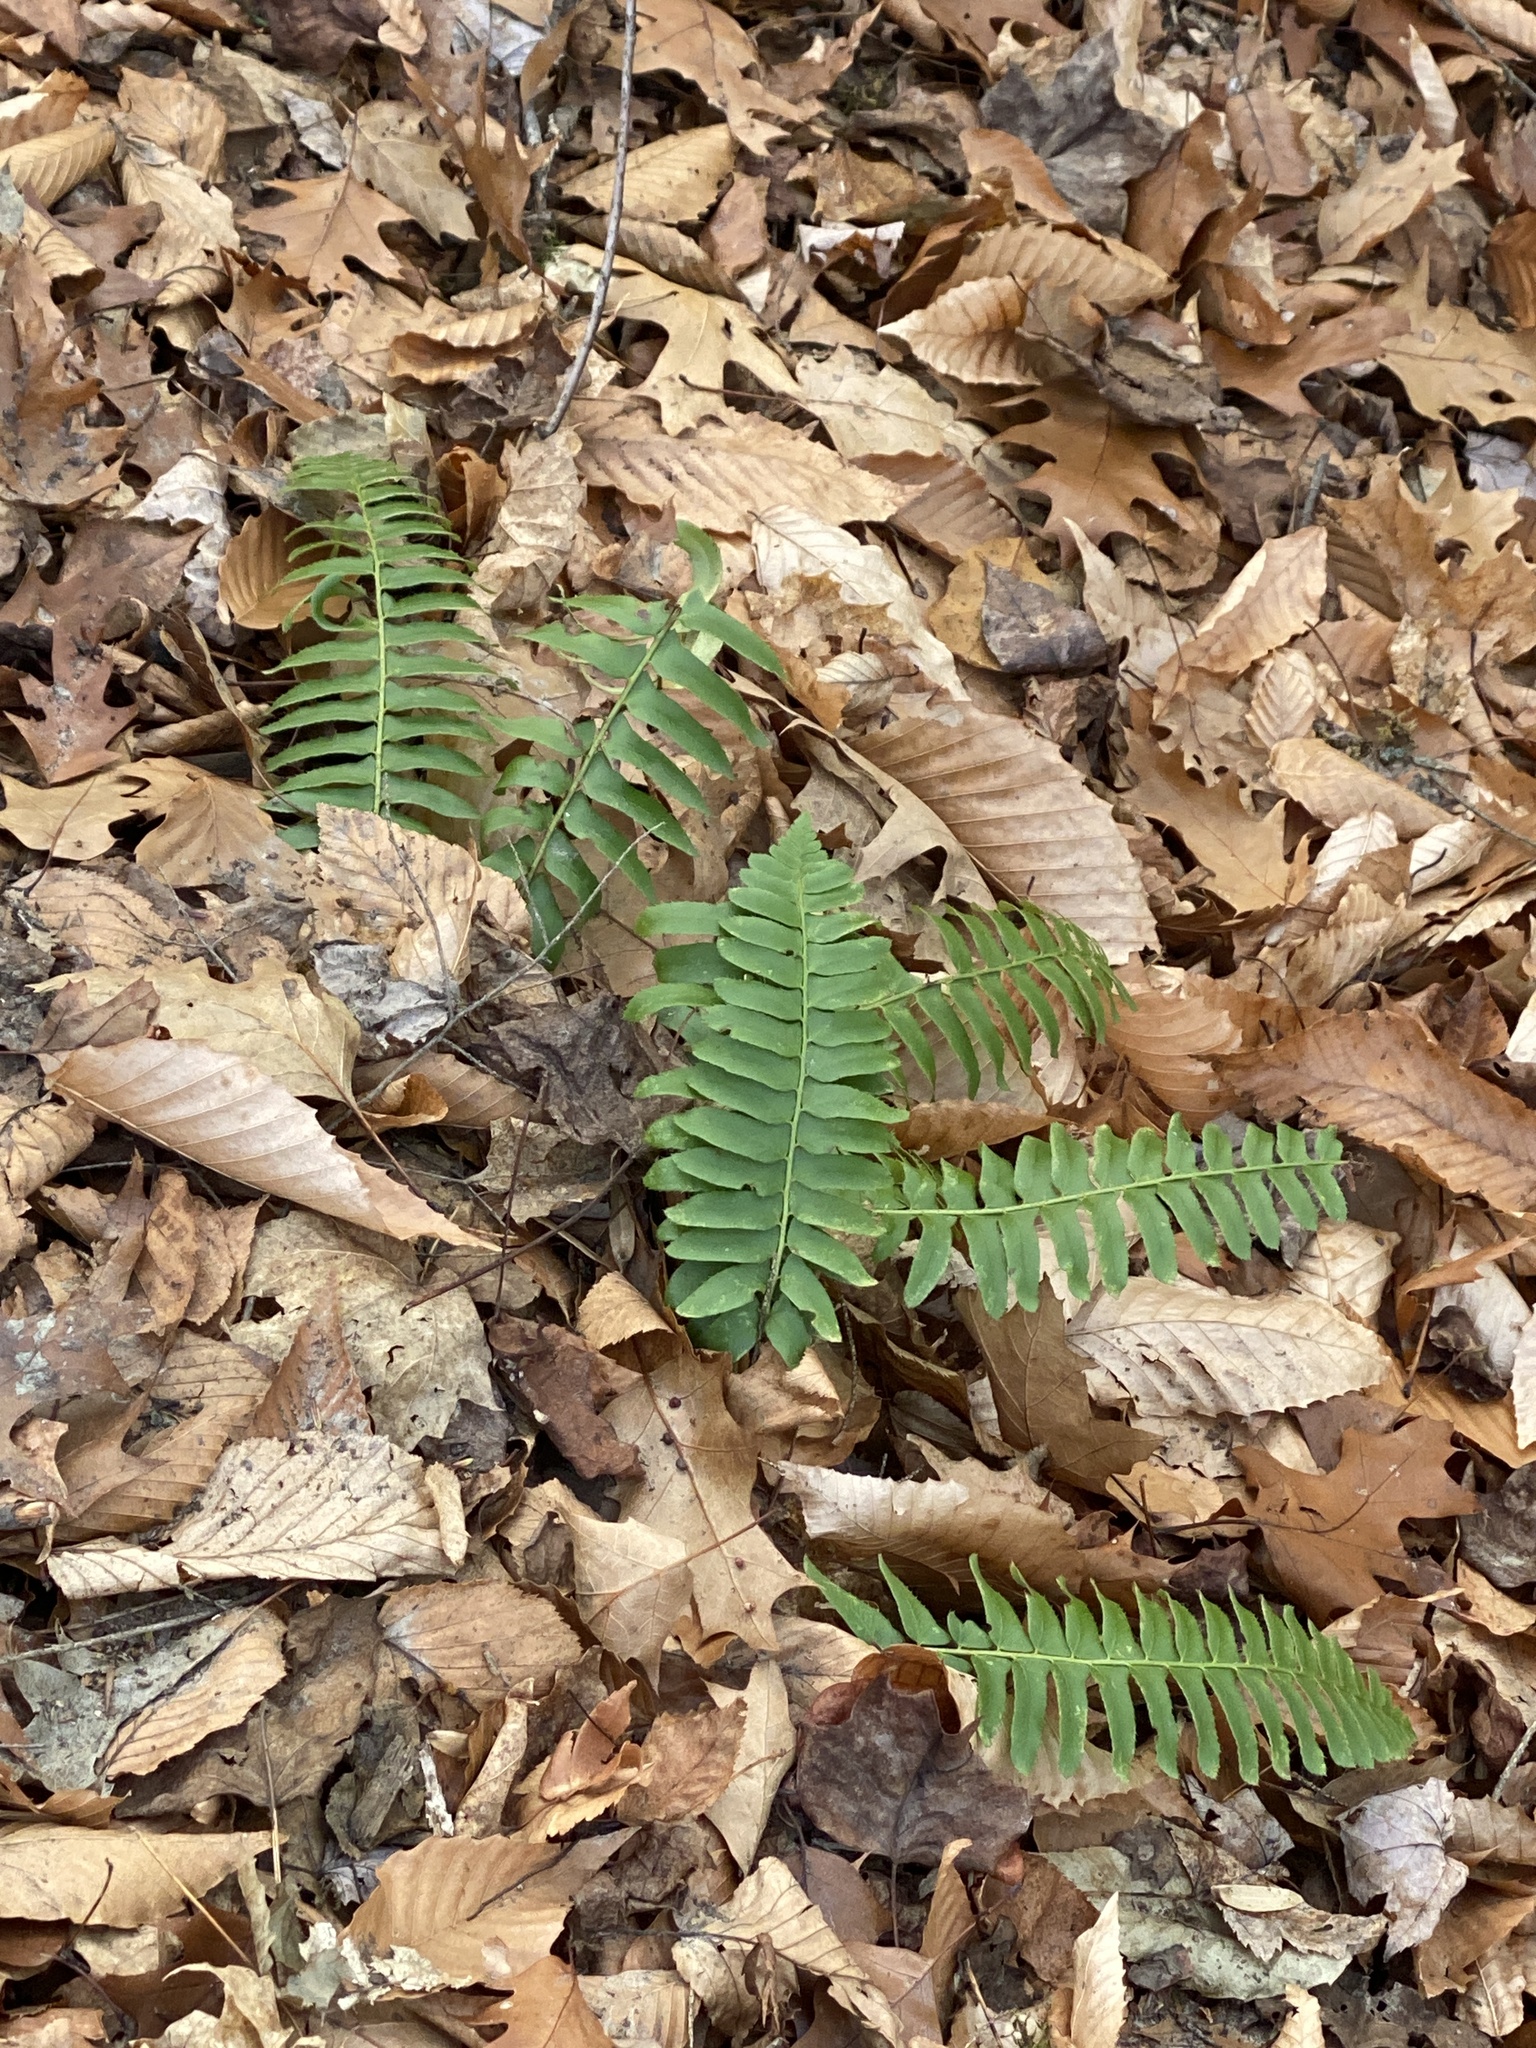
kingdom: Plantae
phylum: Tracheophyta
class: Polypodiopsida
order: Polypodiales
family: Dryopteridaceae
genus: Polystichum
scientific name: Polystichum acrostichoides
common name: Christmas fern
